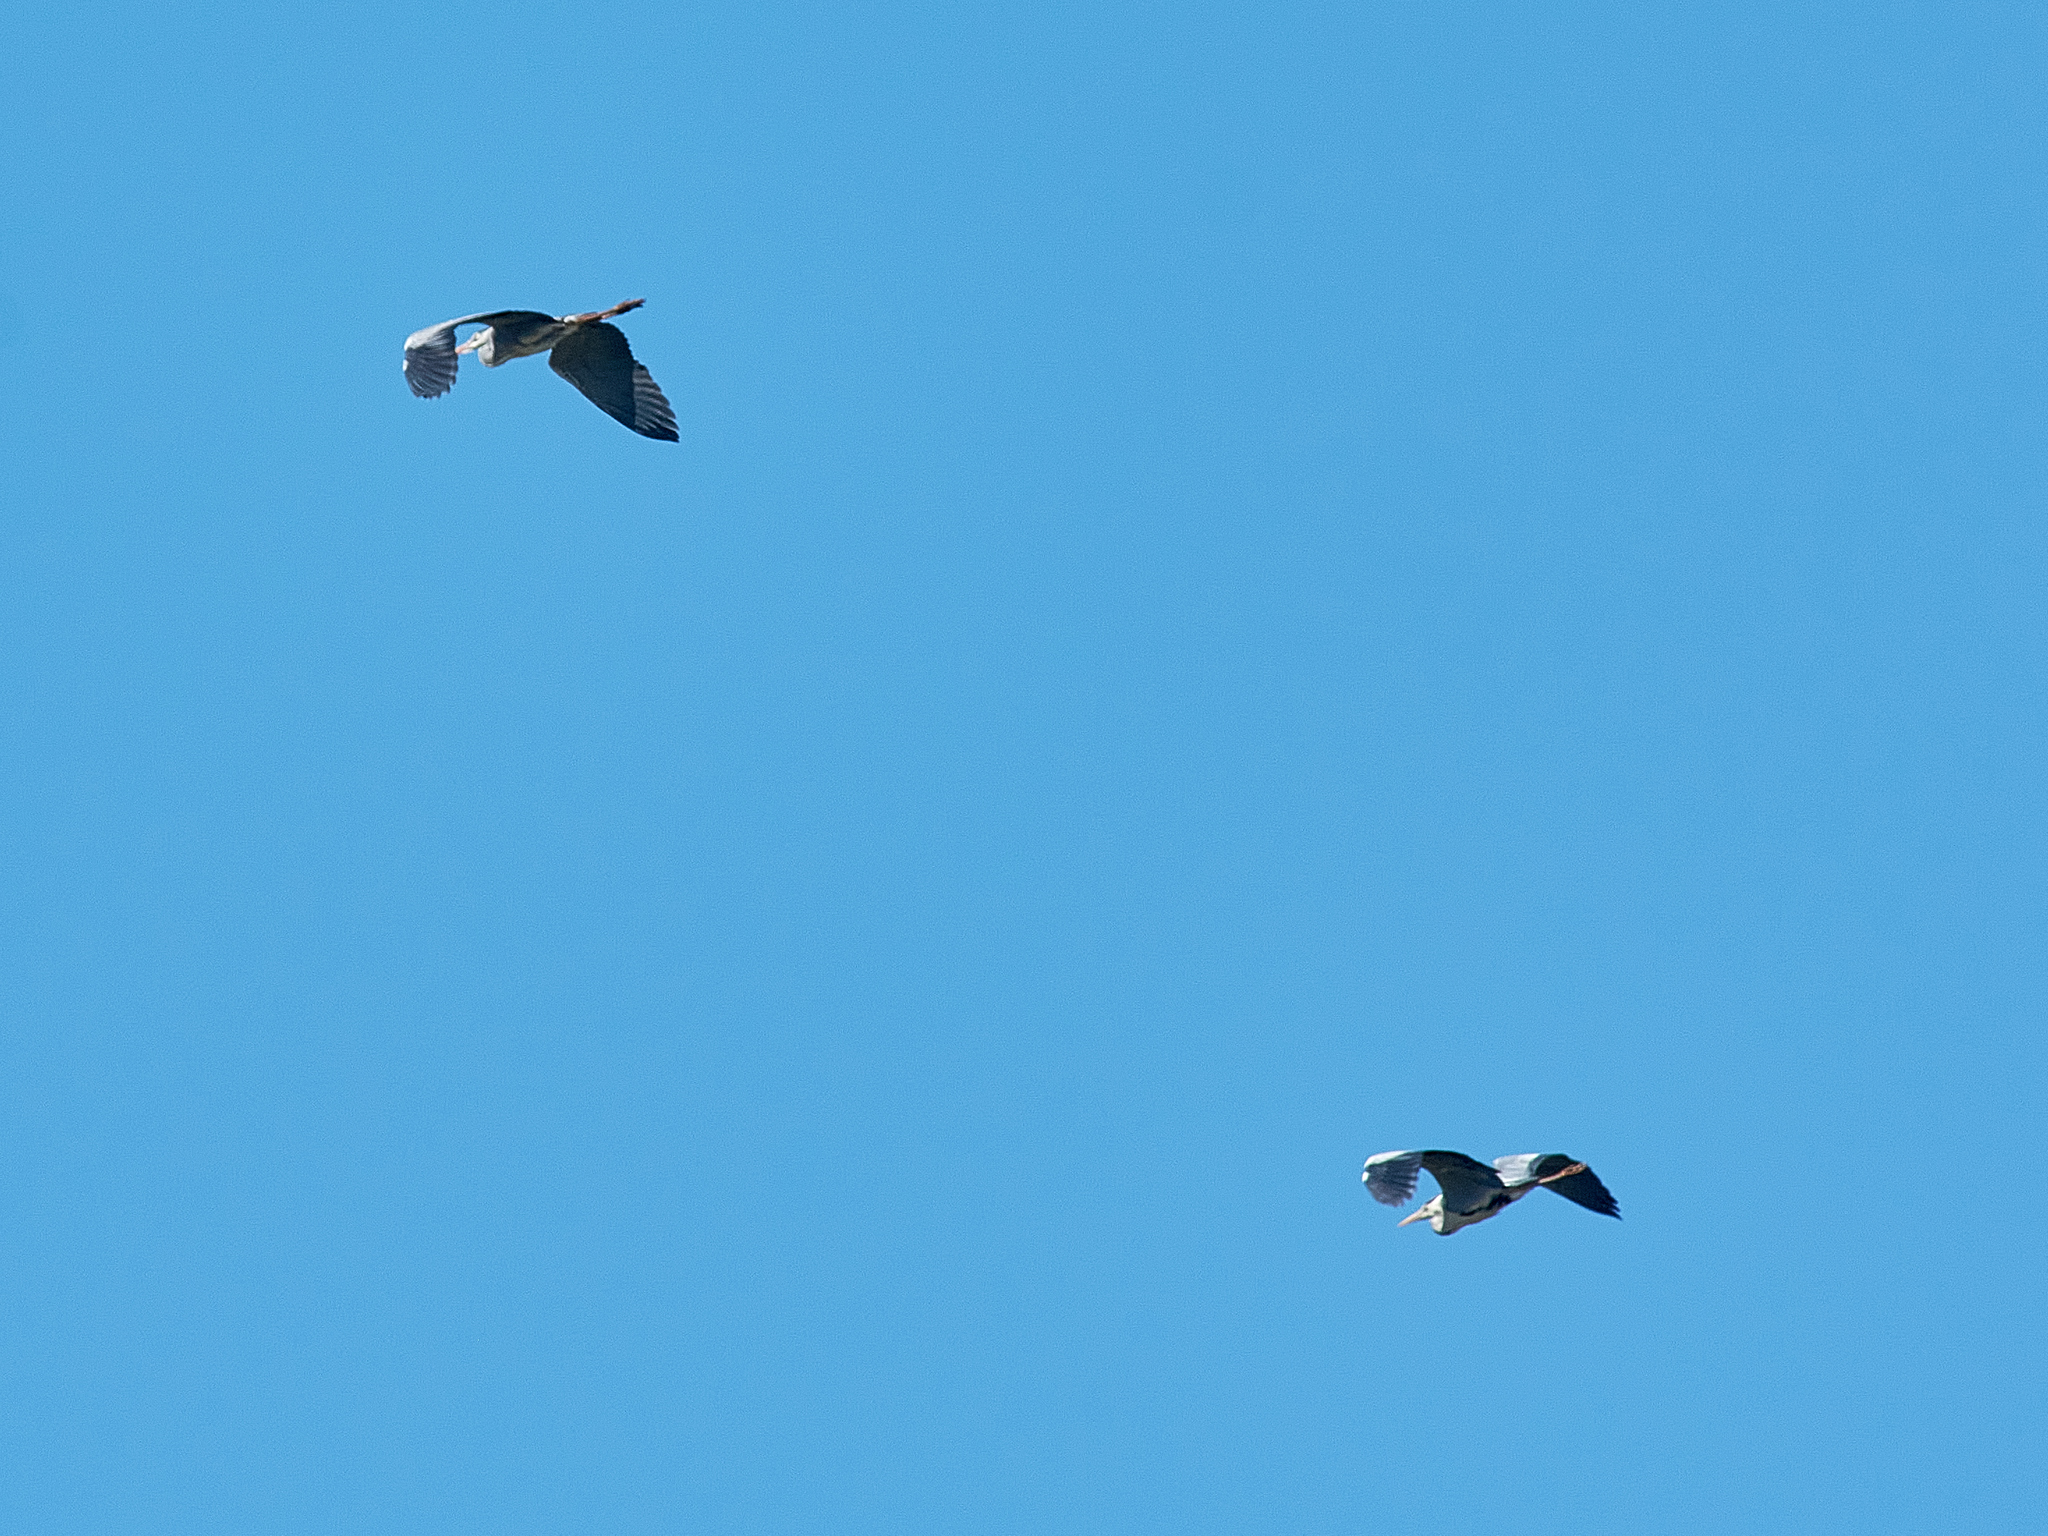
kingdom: Animalia
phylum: Chordata
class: Aves
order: Pelecaniformes
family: Ardeidae
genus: Ardea
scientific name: Ardea cinerea
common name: Grey heron
